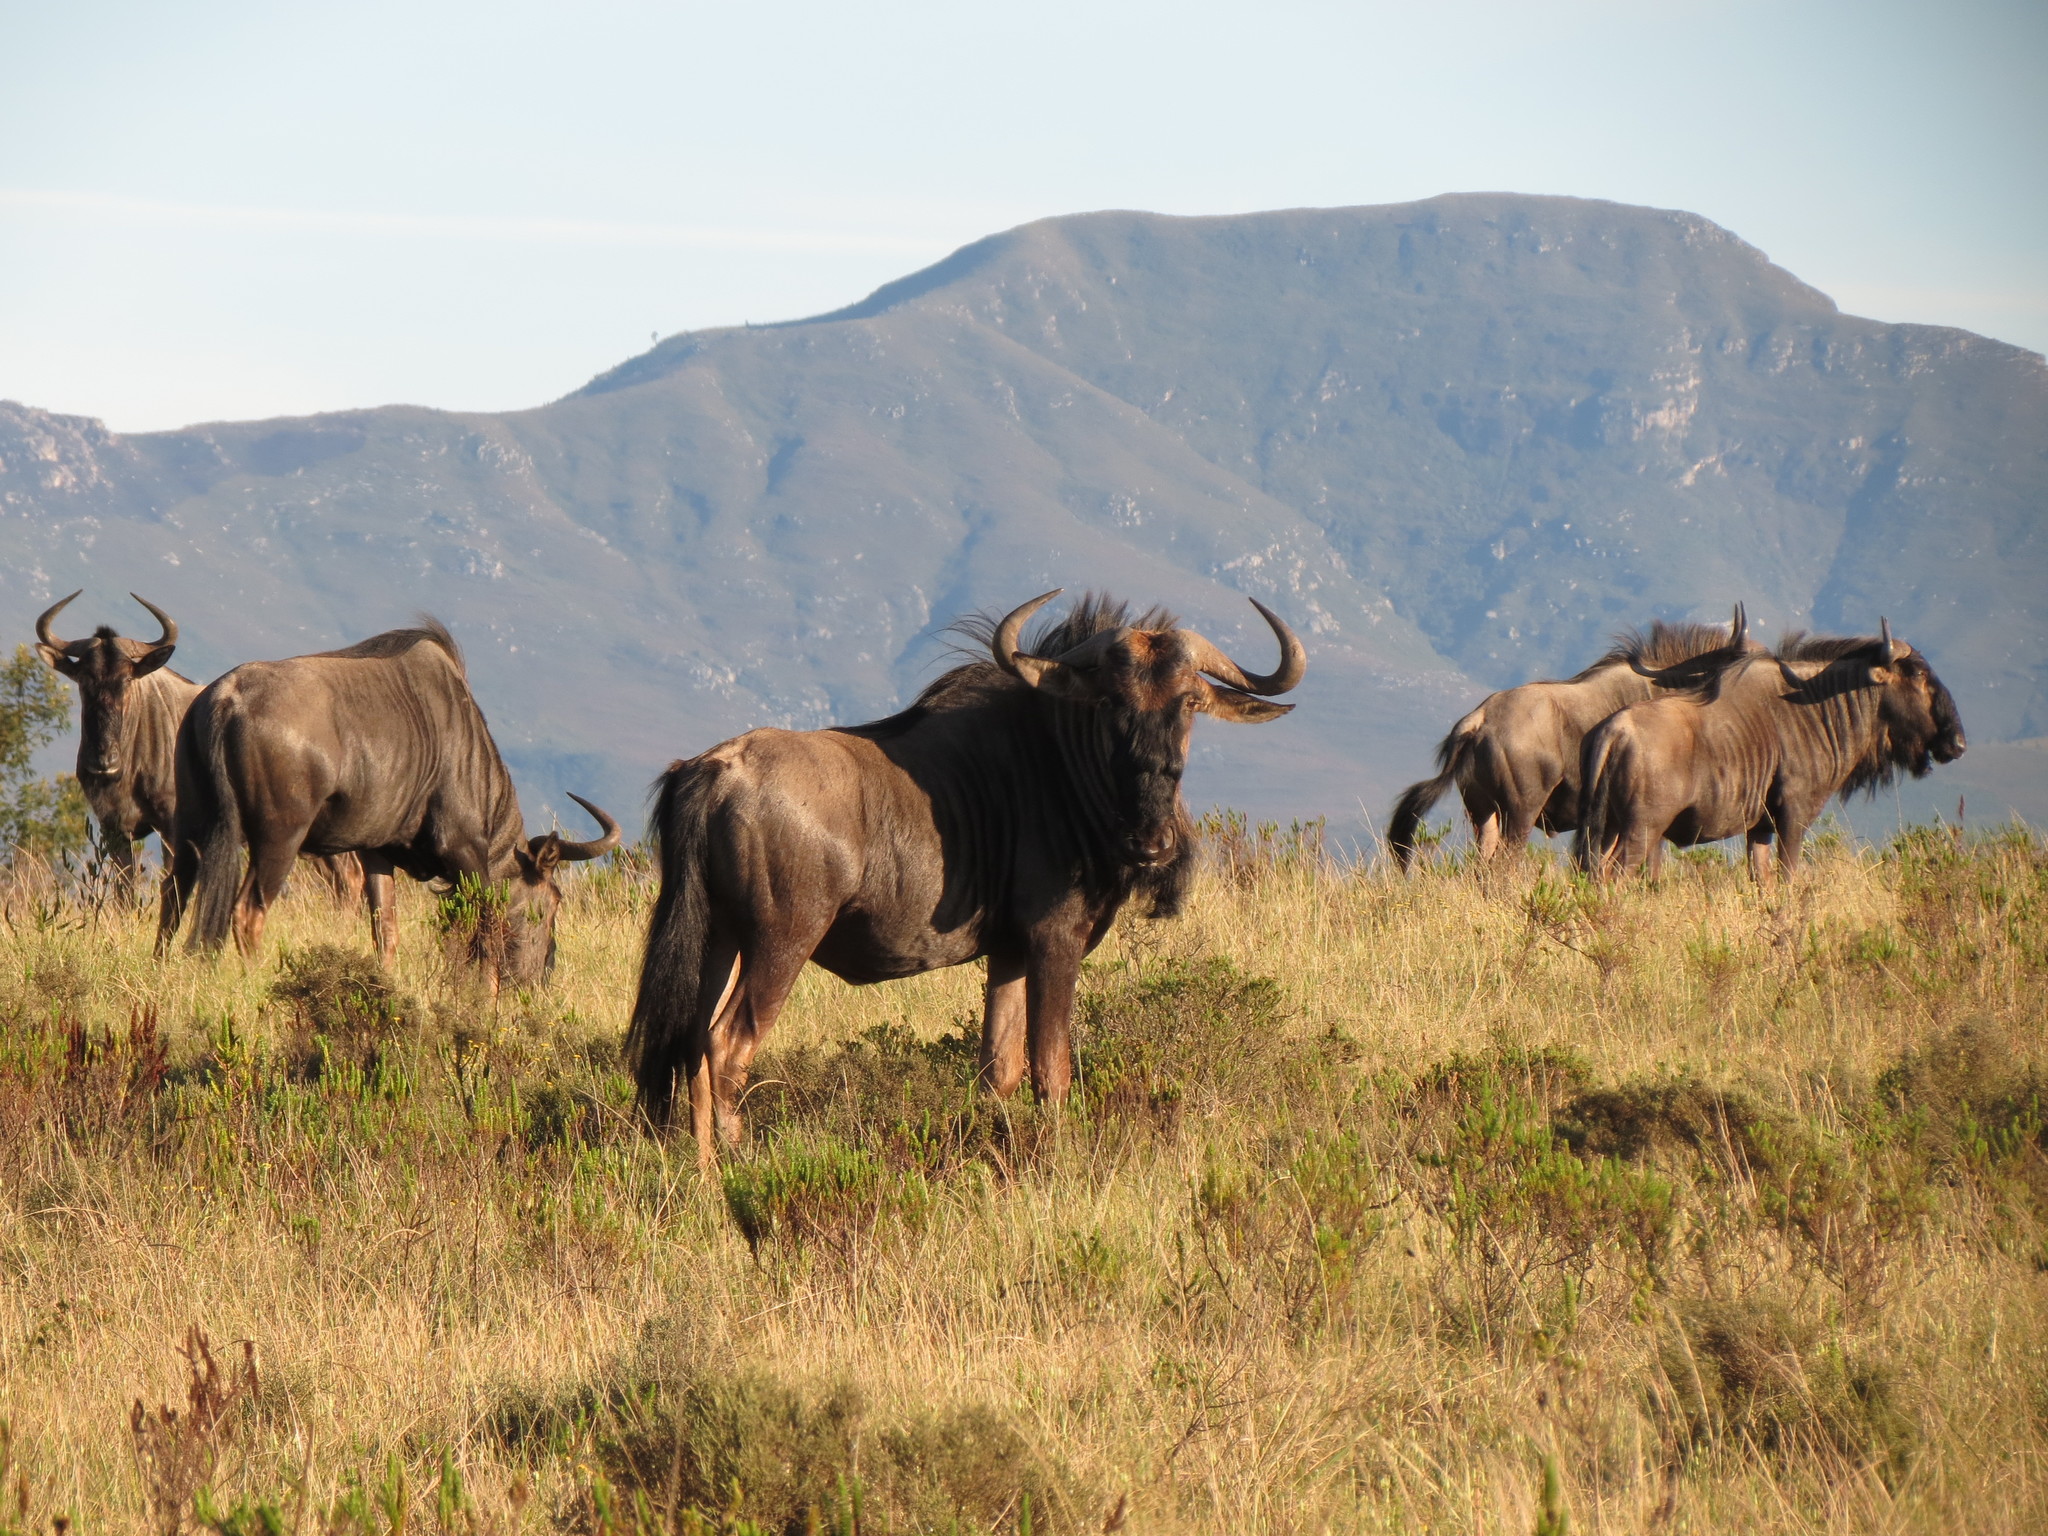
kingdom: Animalia
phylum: Chordata
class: Mammalia
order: Artiodactyla
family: Bovidae
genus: Connochaetes
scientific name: Connochaetes taurinus
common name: Blue wildebeest
